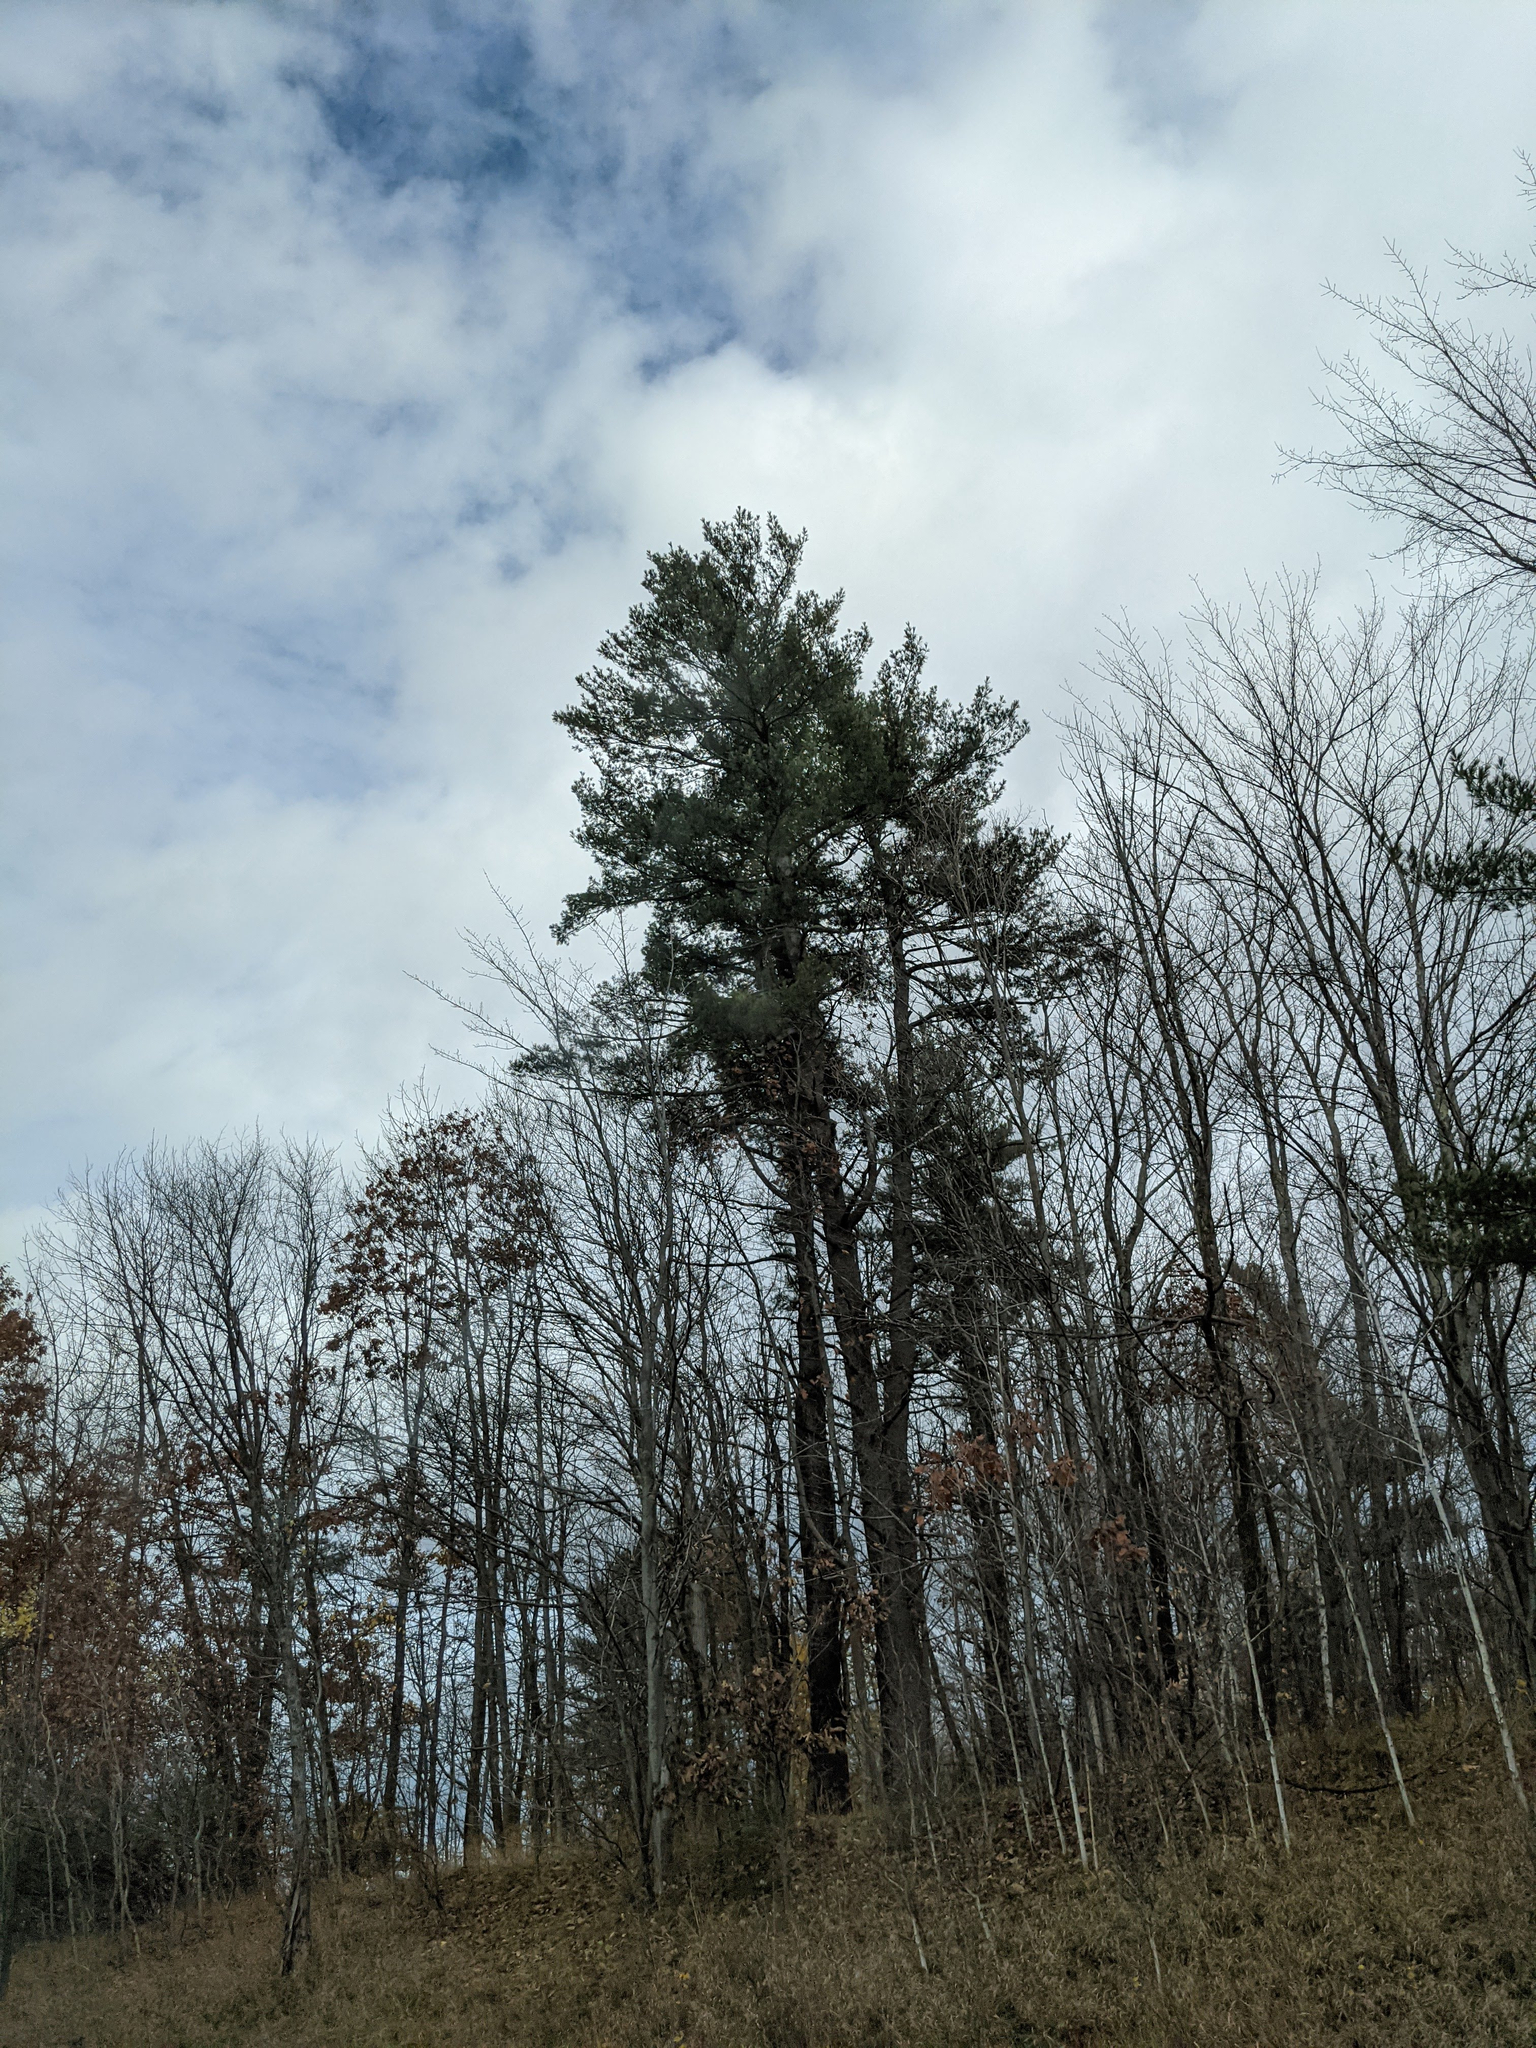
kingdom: Plantae
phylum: Tracheophyta
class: Pinopsida
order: Pinales
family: Pinaceae
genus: Pinus
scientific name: Pinus strobus
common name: Weymouth pine
